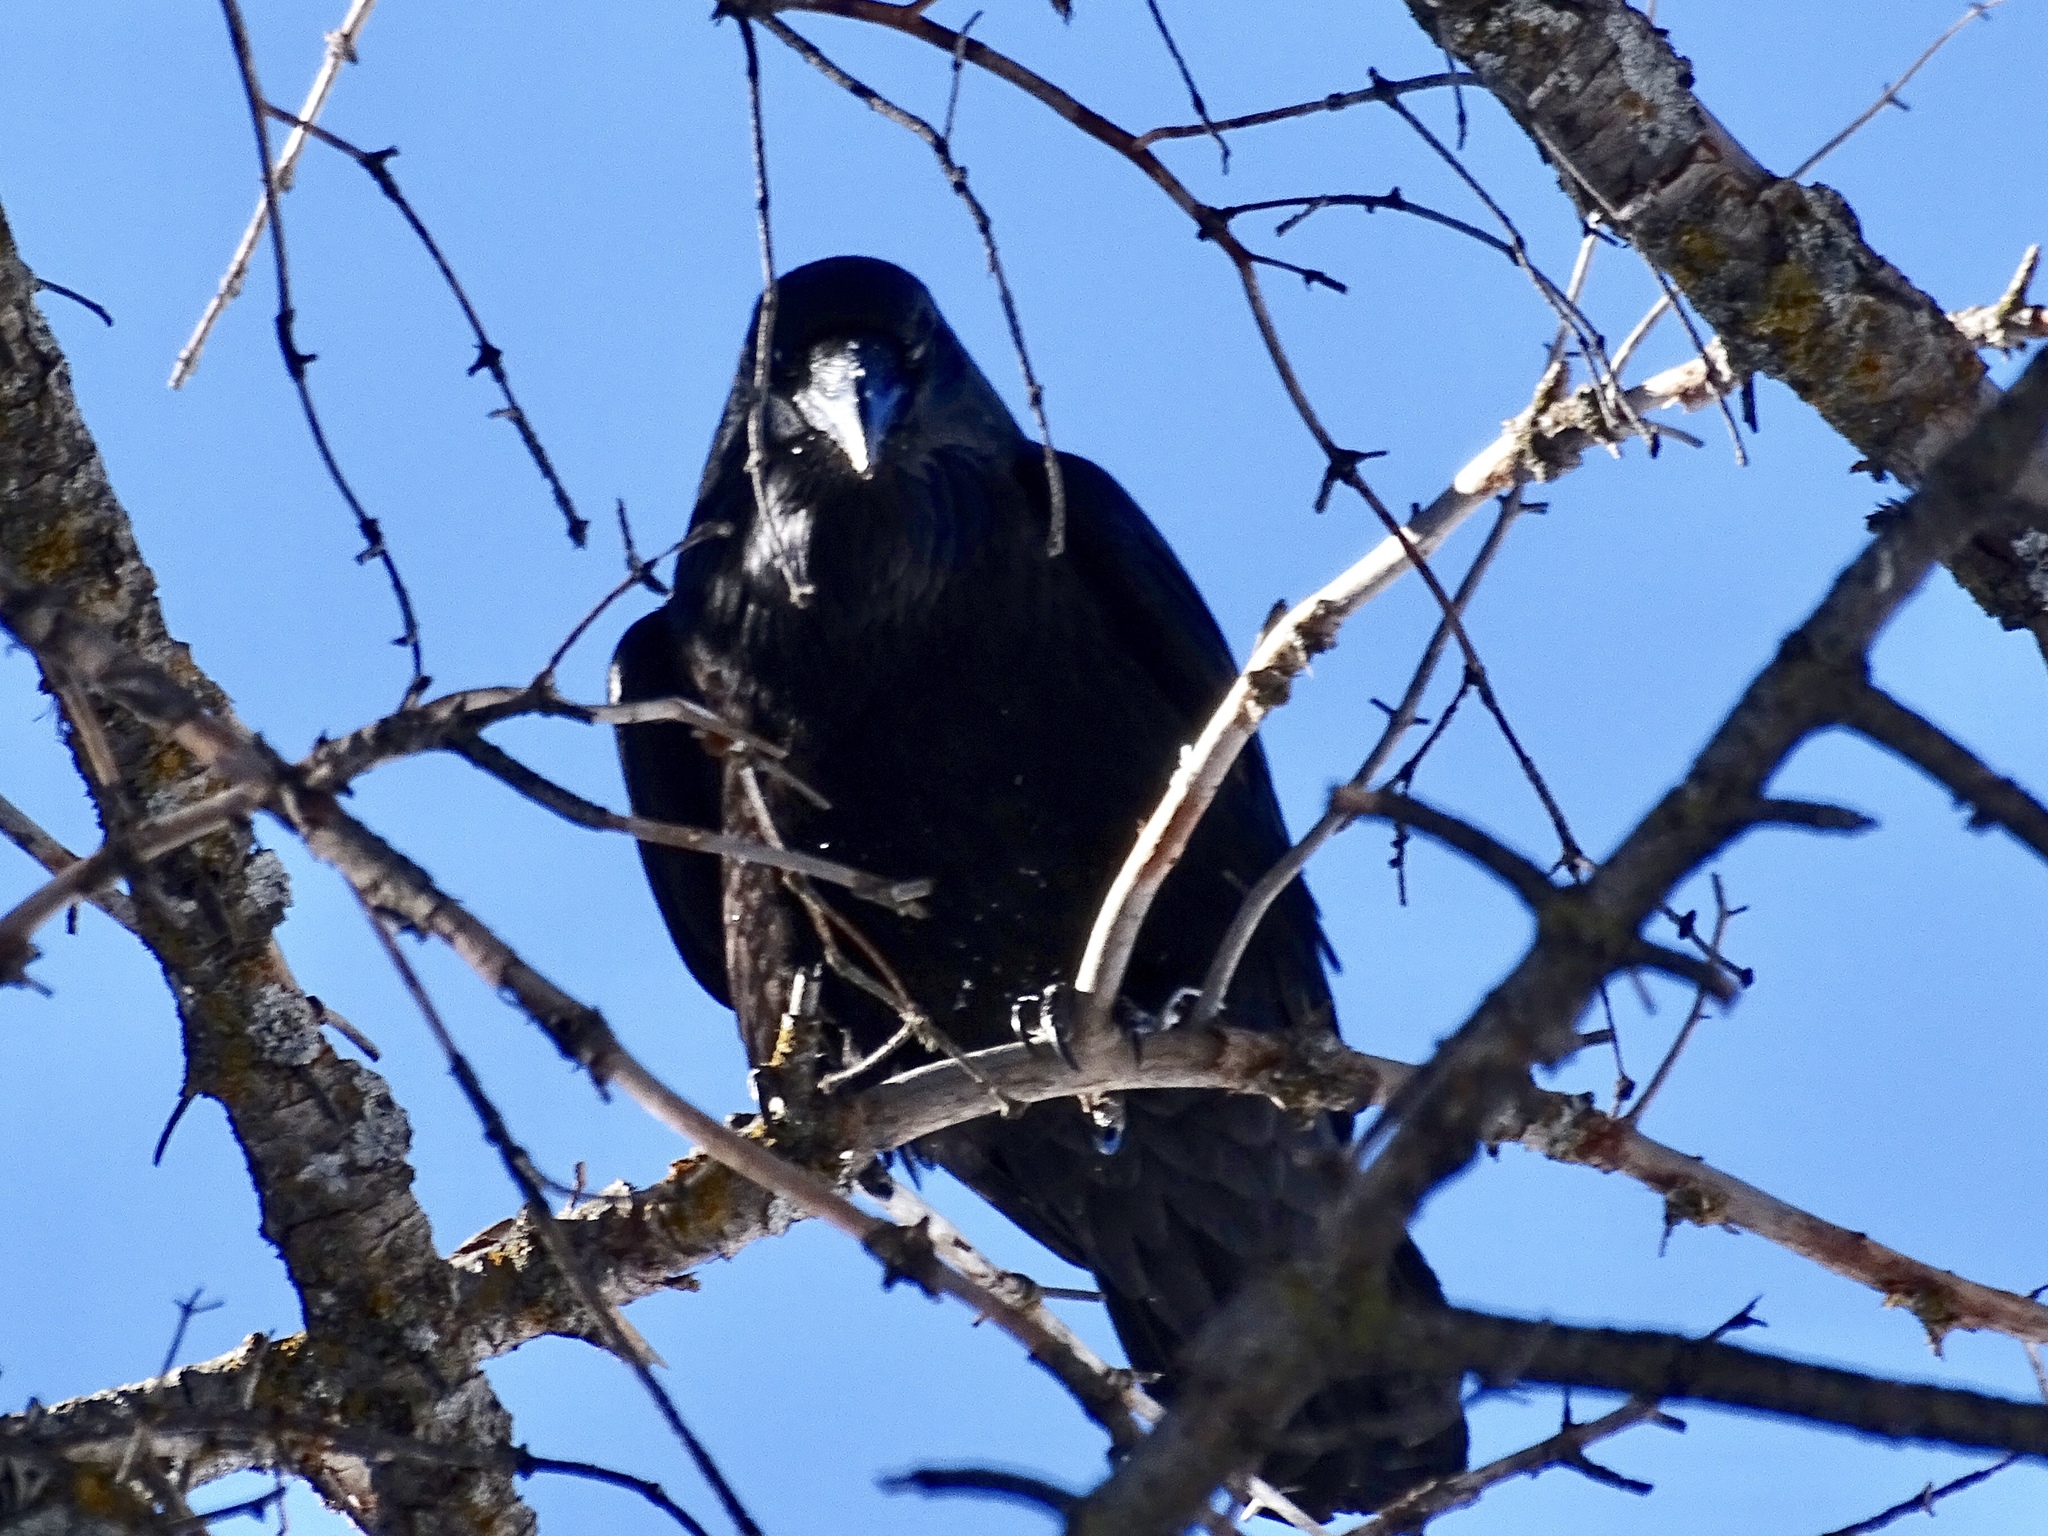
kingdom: Animalia
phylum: Chordata
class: Aves
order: Passeriformes
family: Corvidae
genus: Corvus
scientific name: Corvus corax
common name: Common raven
